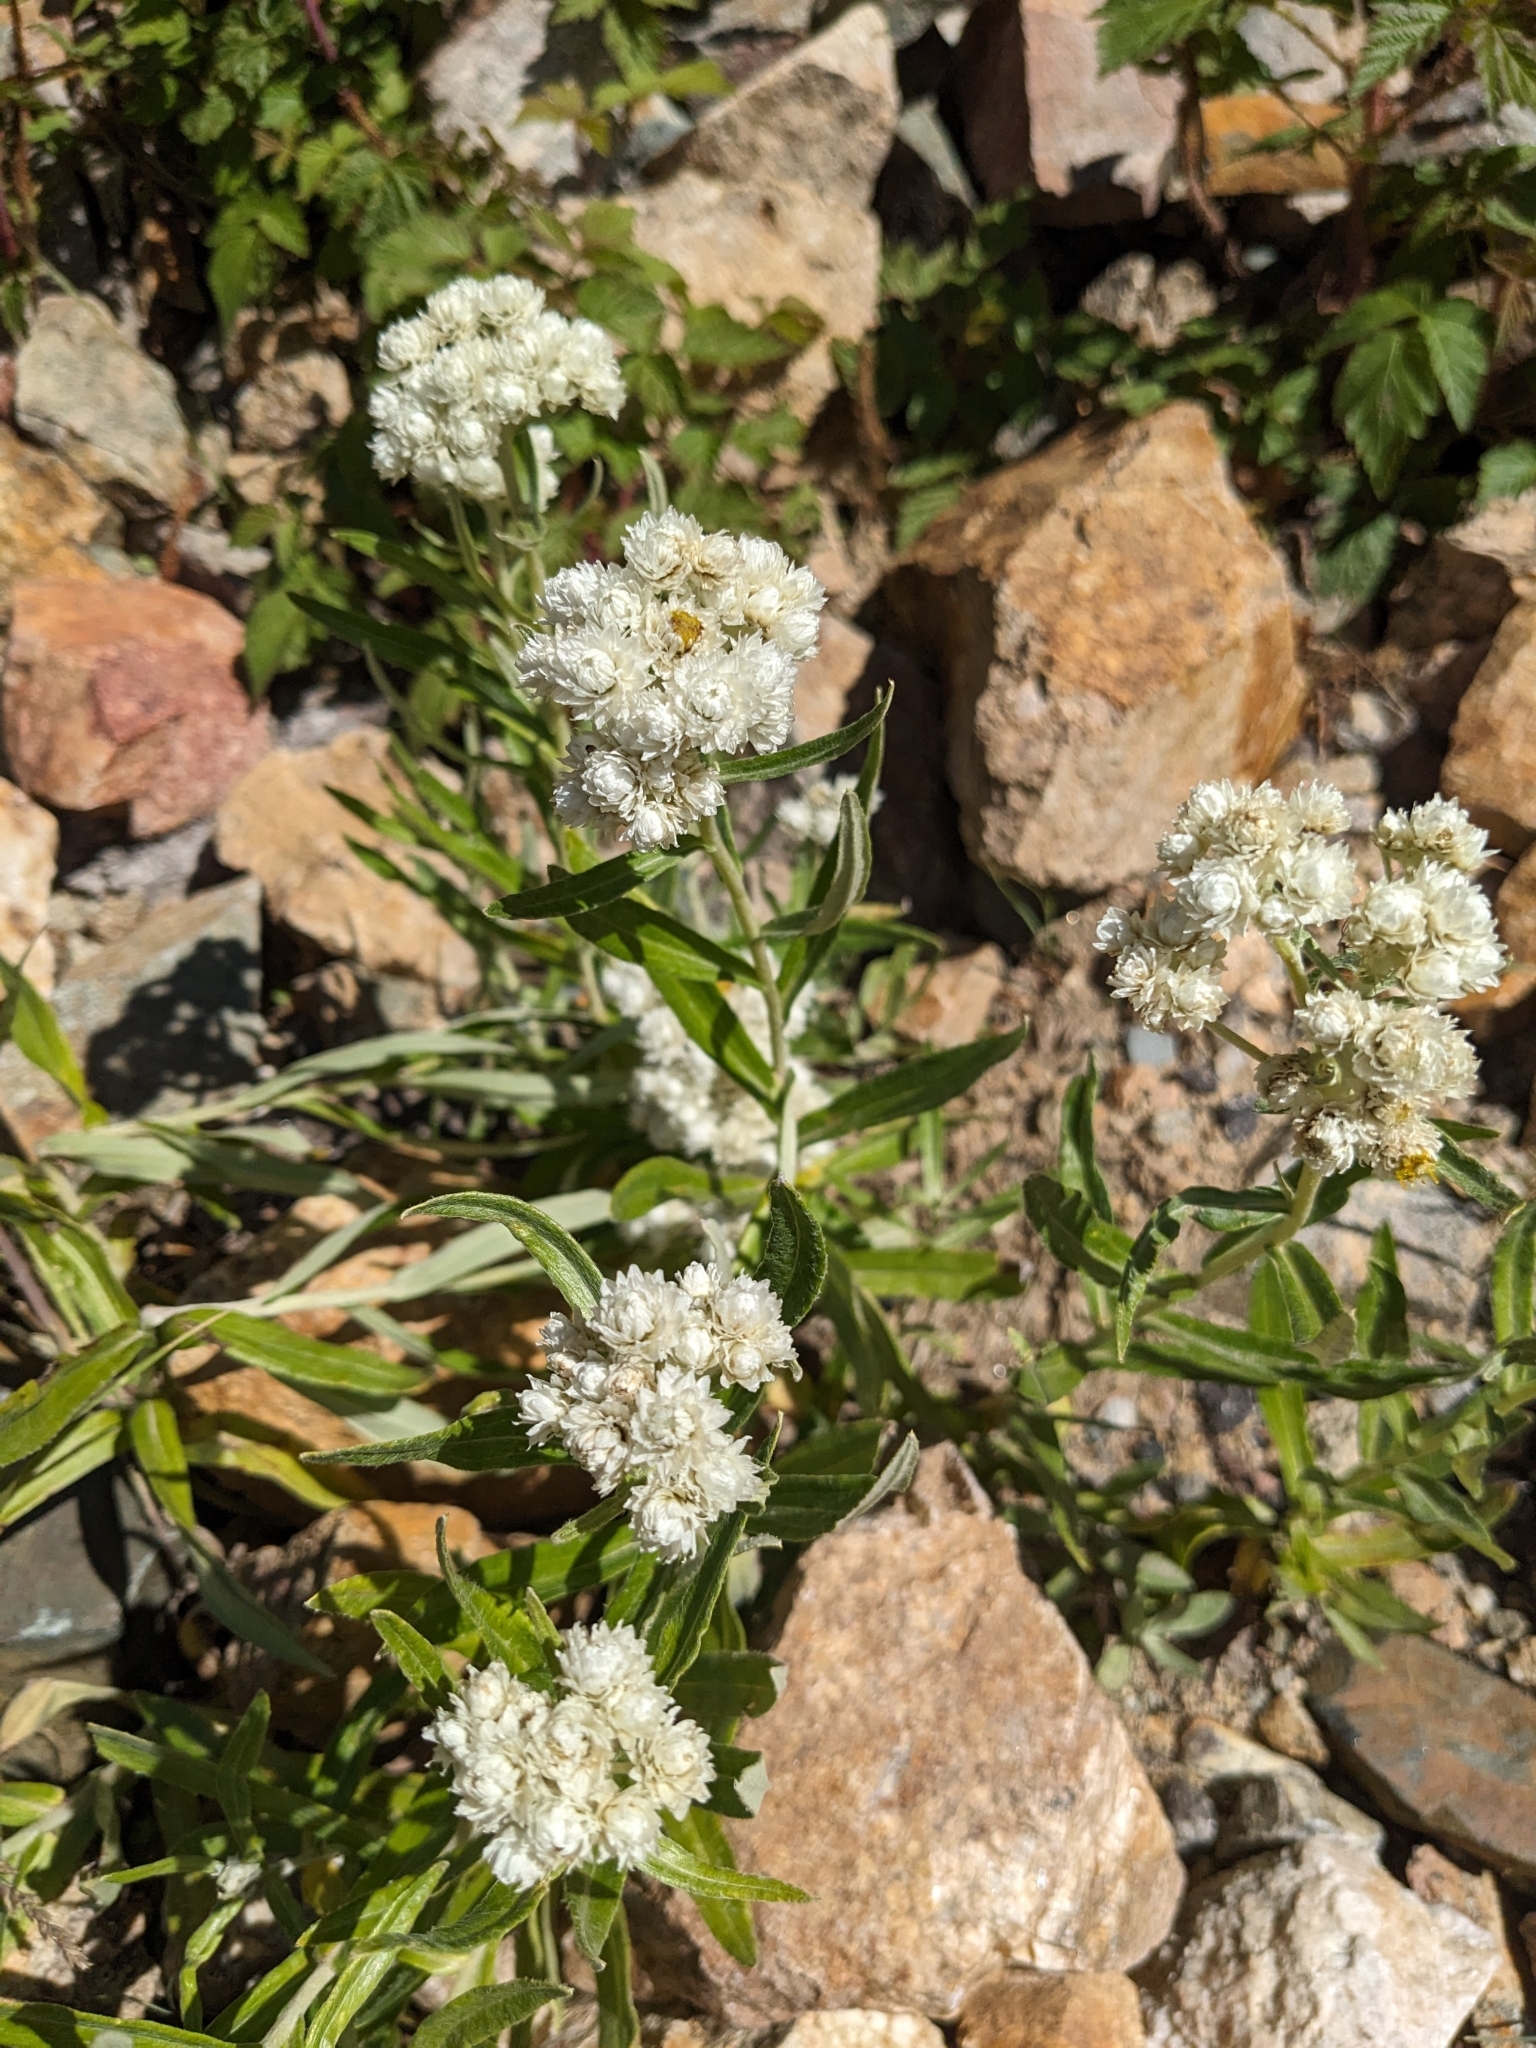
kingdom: Plantae
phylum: Tracheophyta
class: Magnoliopsida
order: Asterales
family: Asteraceae
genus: Anaphalis
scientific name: Anaphalis margaritacea
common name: Pearly everlasting
